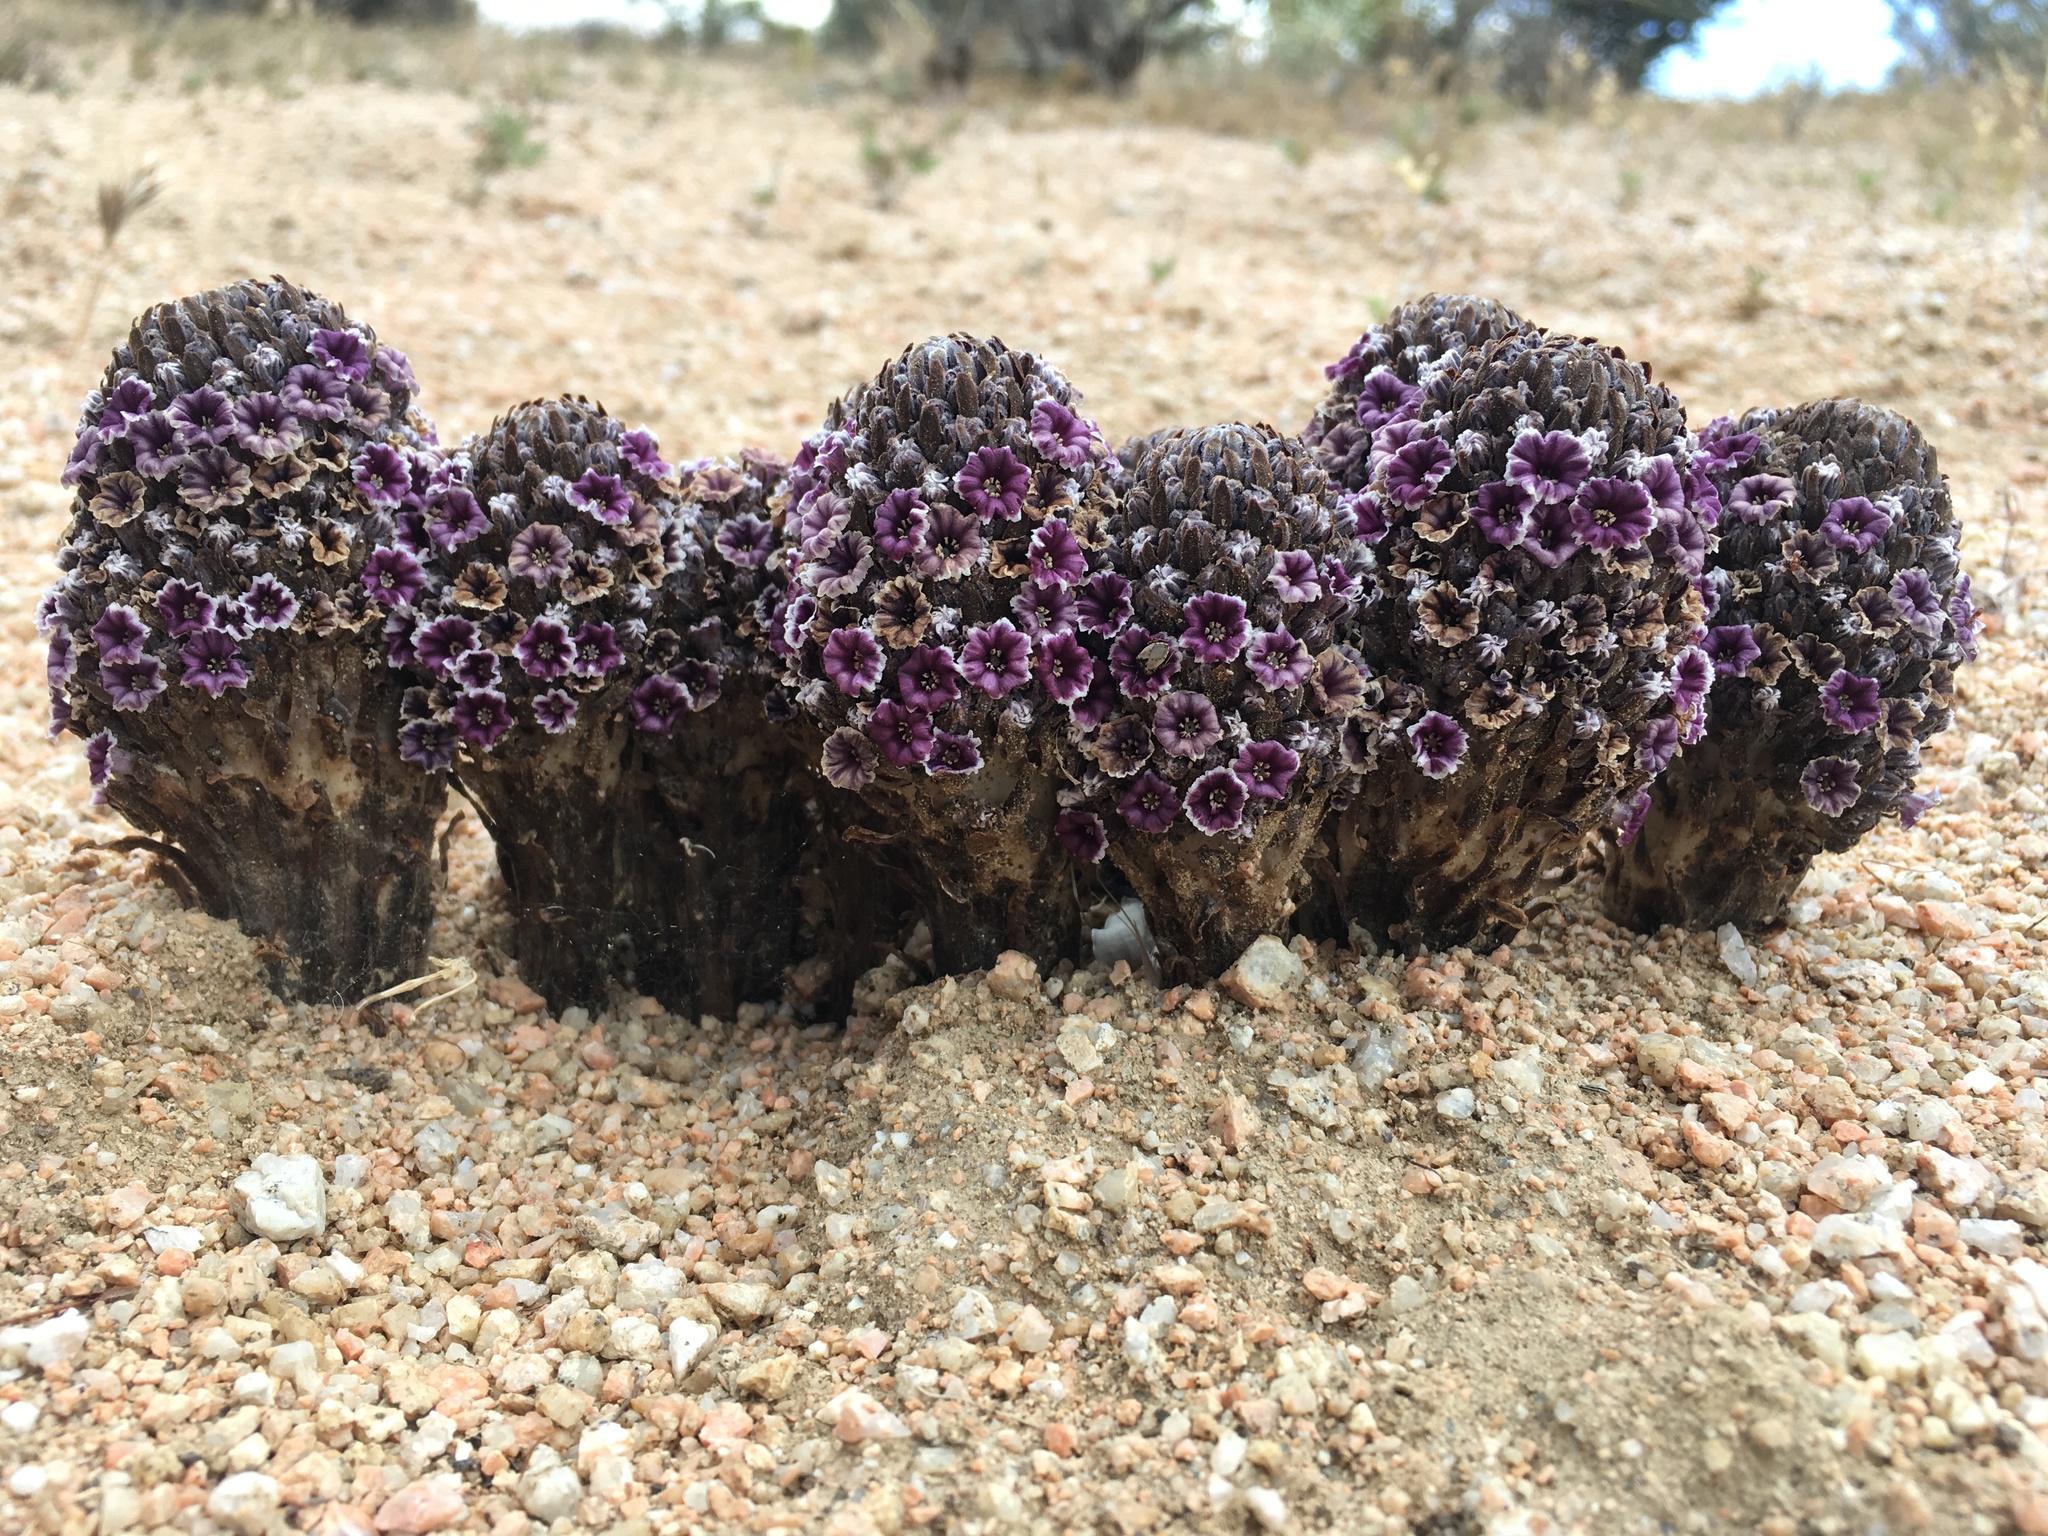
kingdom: Plantae
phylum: Tracheophyta
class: Magnoliopsida
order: Boraginales
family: Lennoaceae
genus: Pholisma
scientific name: Pholisma arenarium
